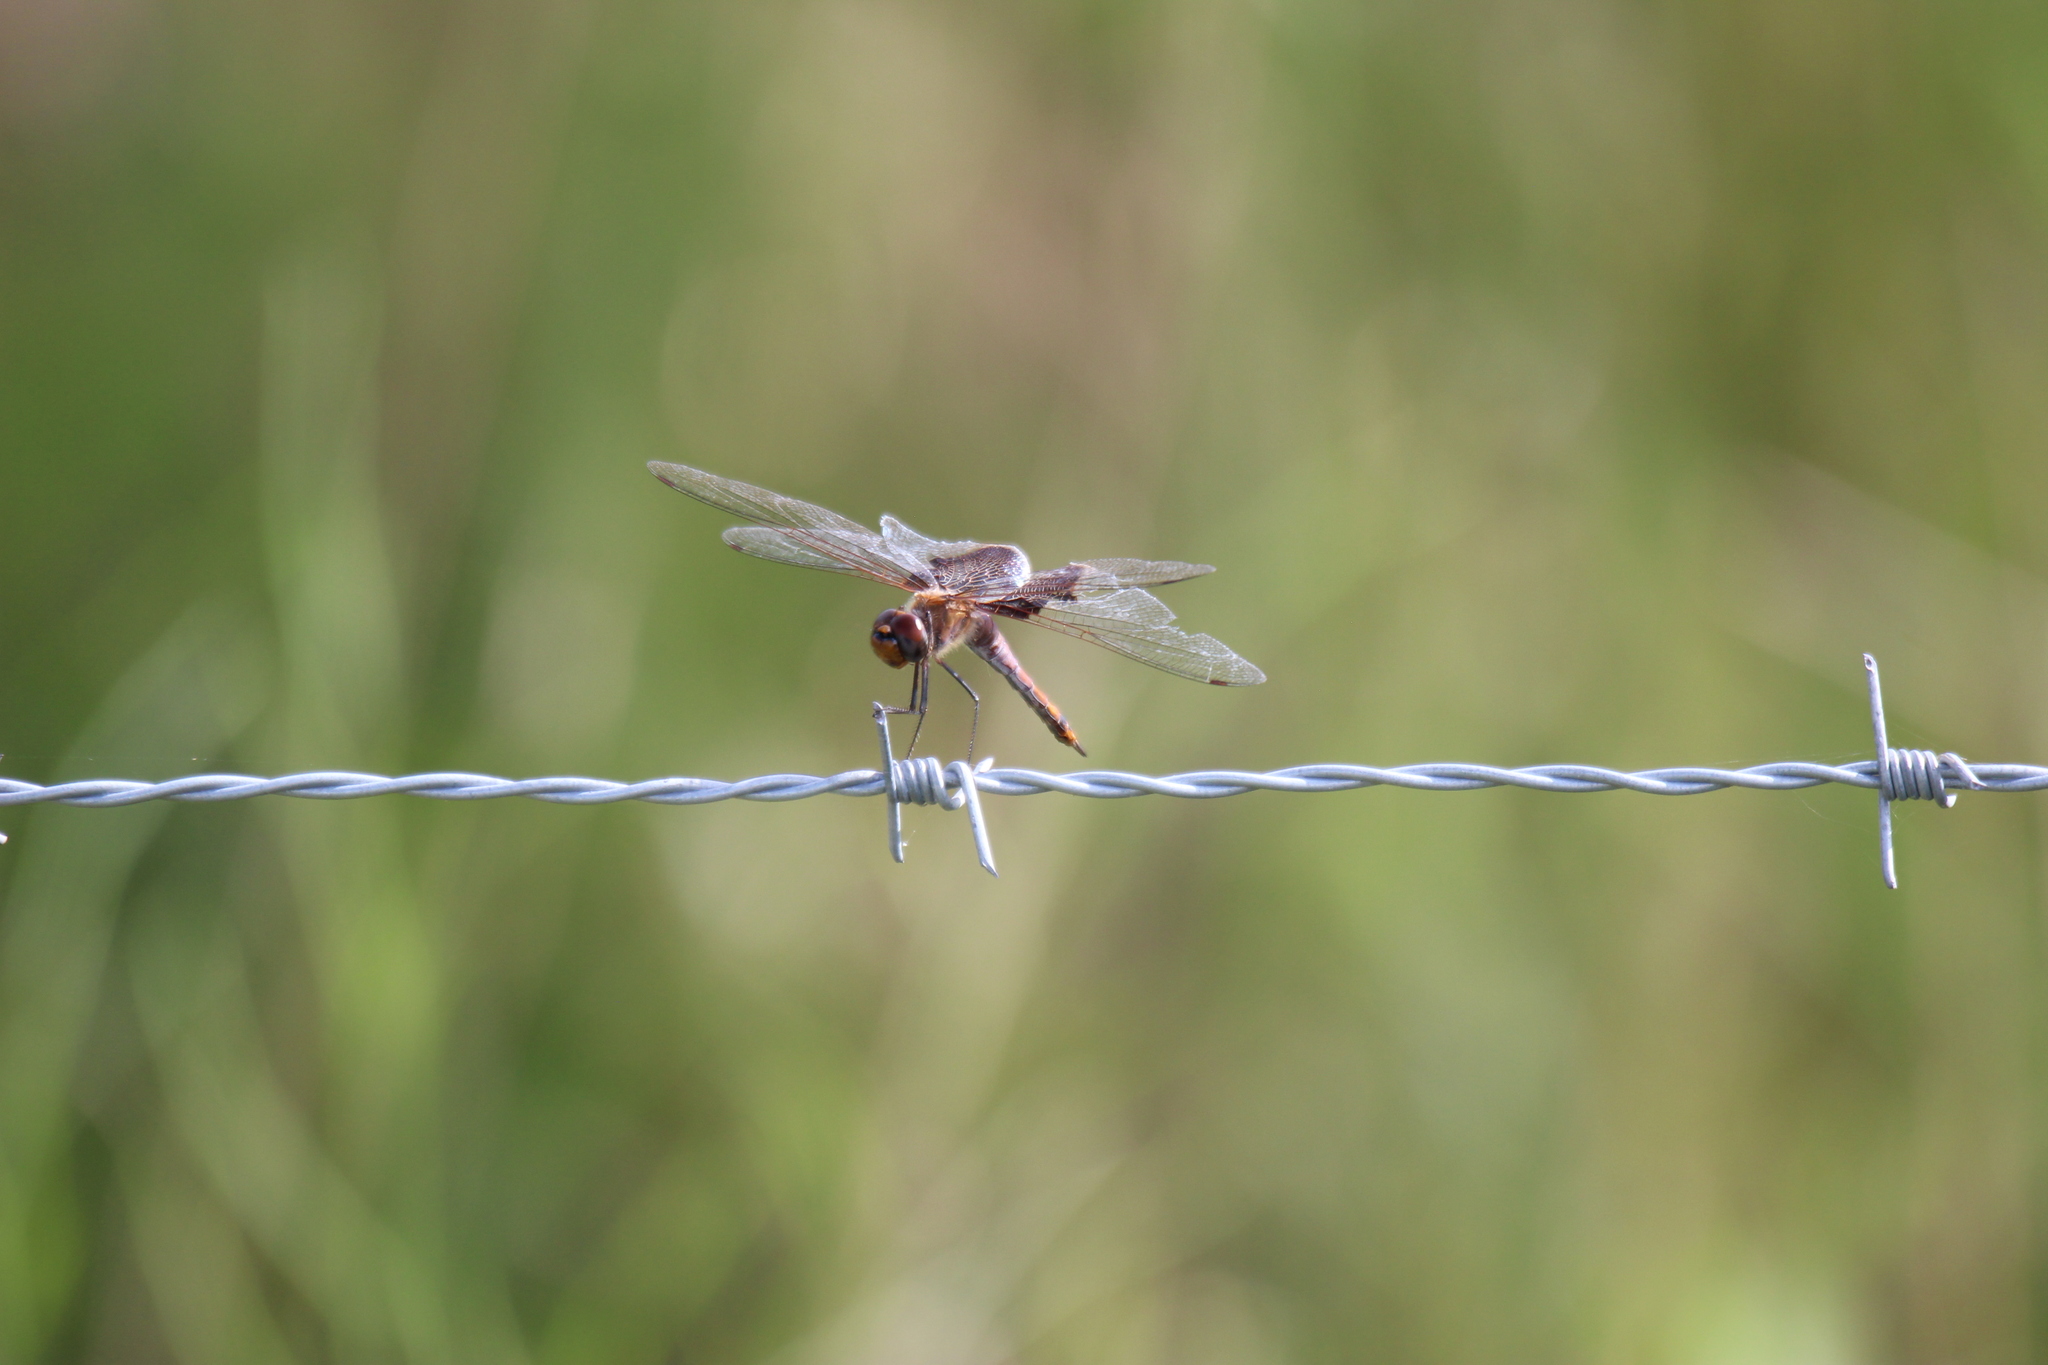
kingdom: Animalia
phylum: Arthropoda
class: Insecta
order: Odonata
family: Libellulidae
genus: Tramea
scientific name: Tramea carolina
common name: Carolina saddlebags
